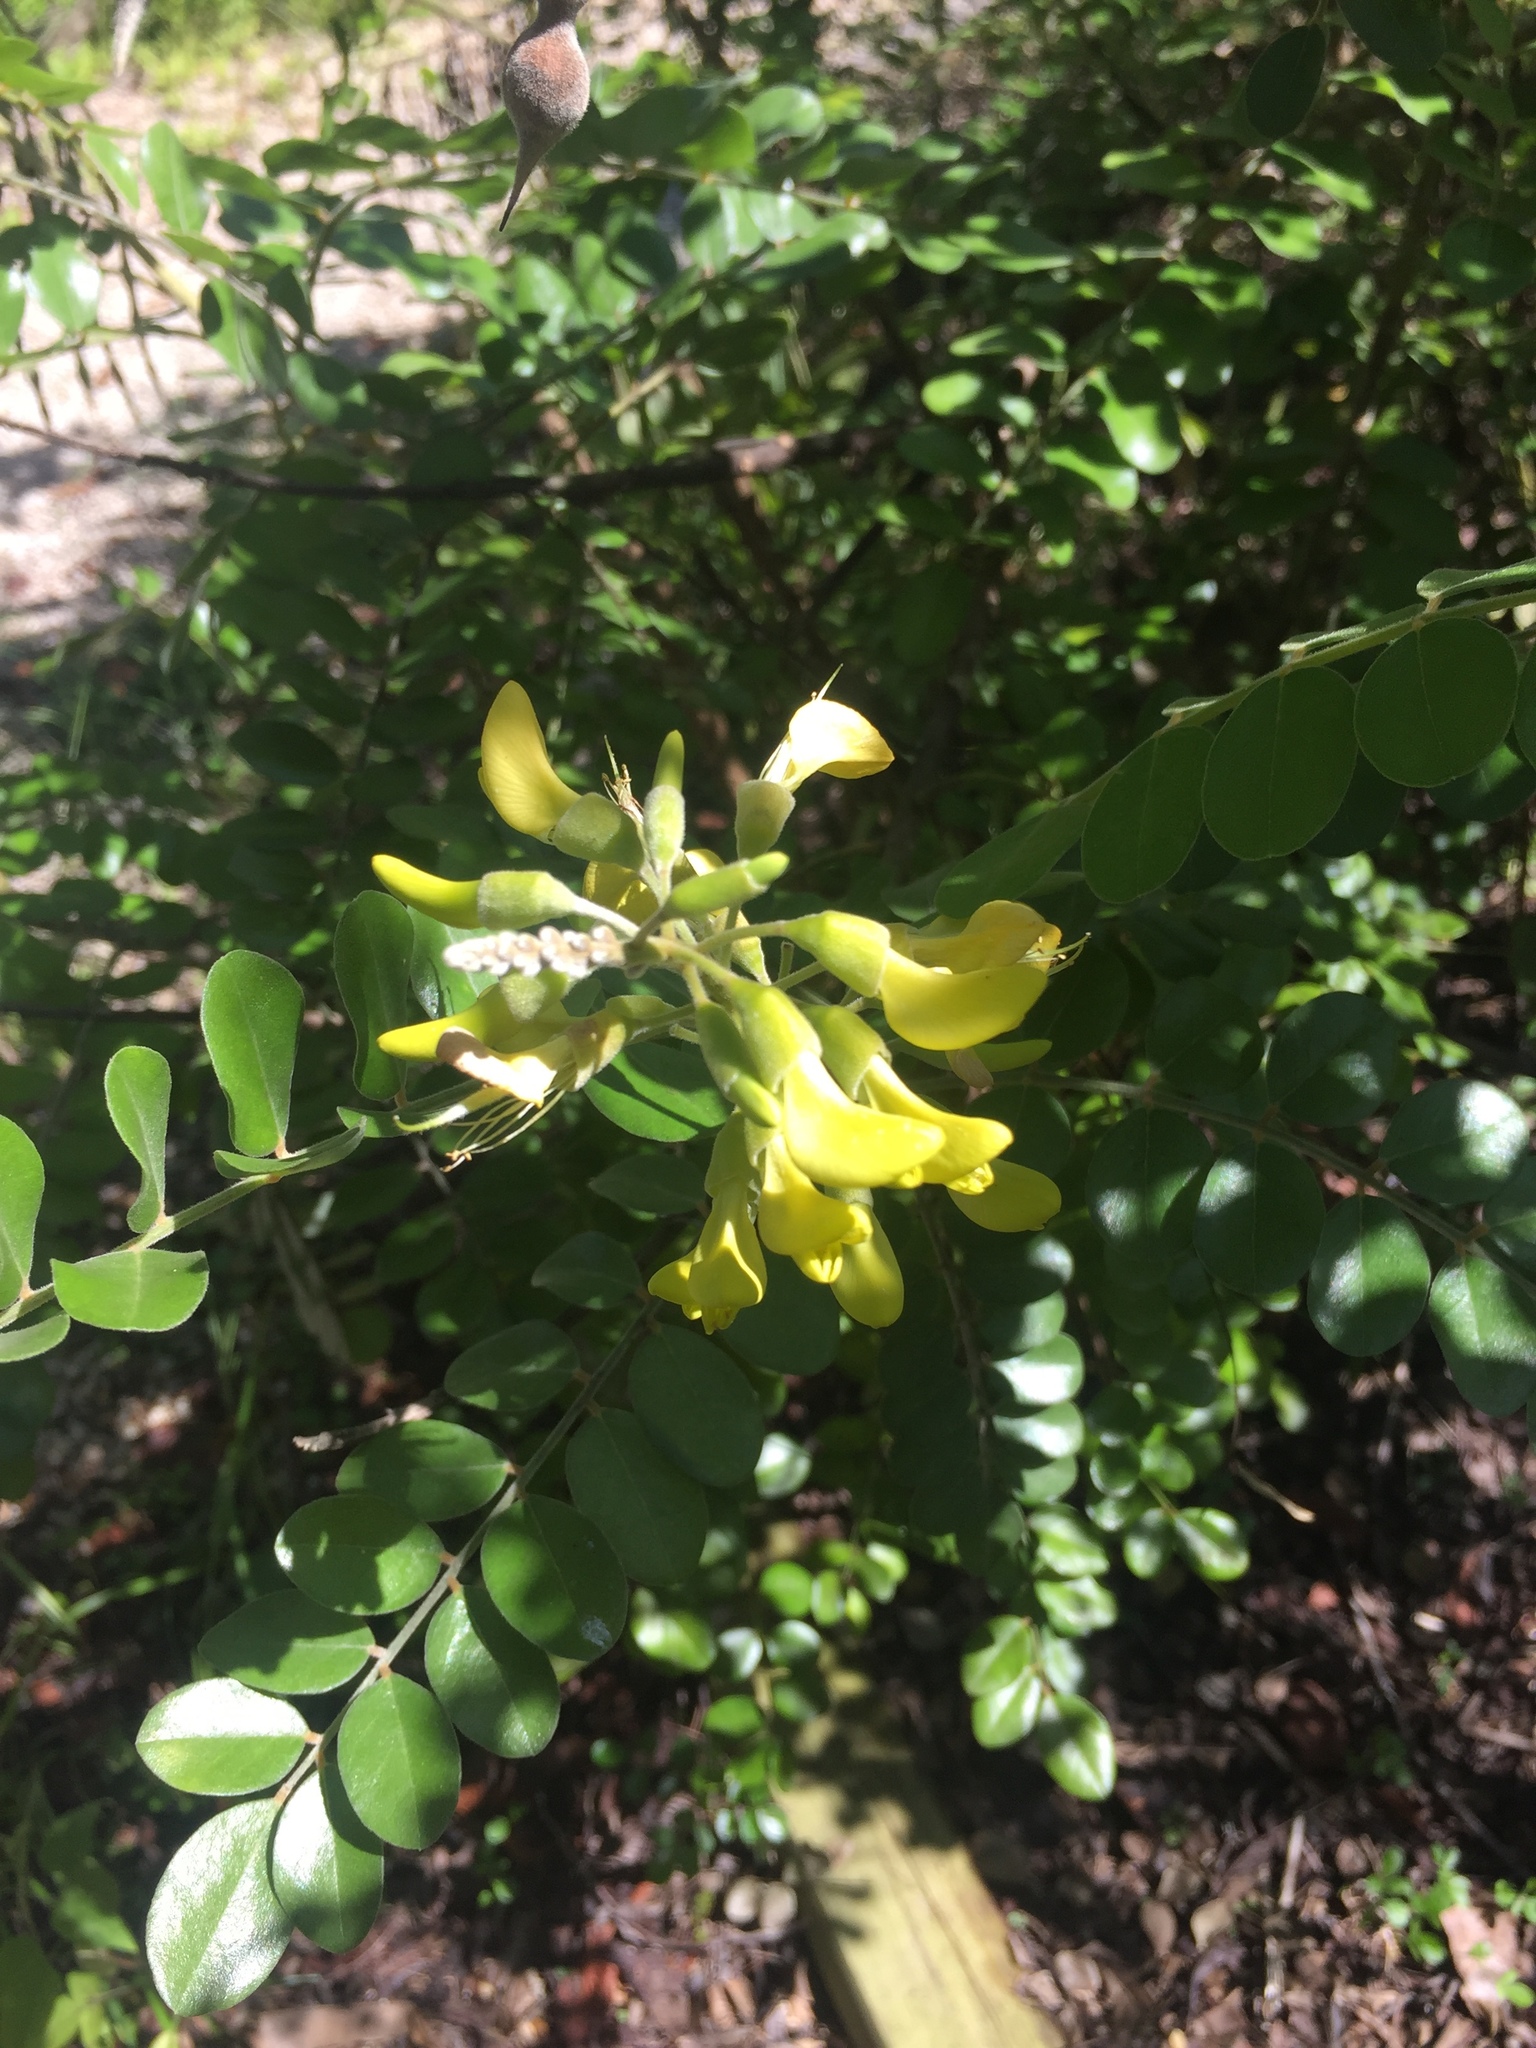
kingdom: Plantae
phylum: Tracheophyta
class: Magnoliopsida
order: Fabales
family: Fabaceae
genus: Sophora
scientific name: Sophora tomentosa
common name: Yellow necklacepod
